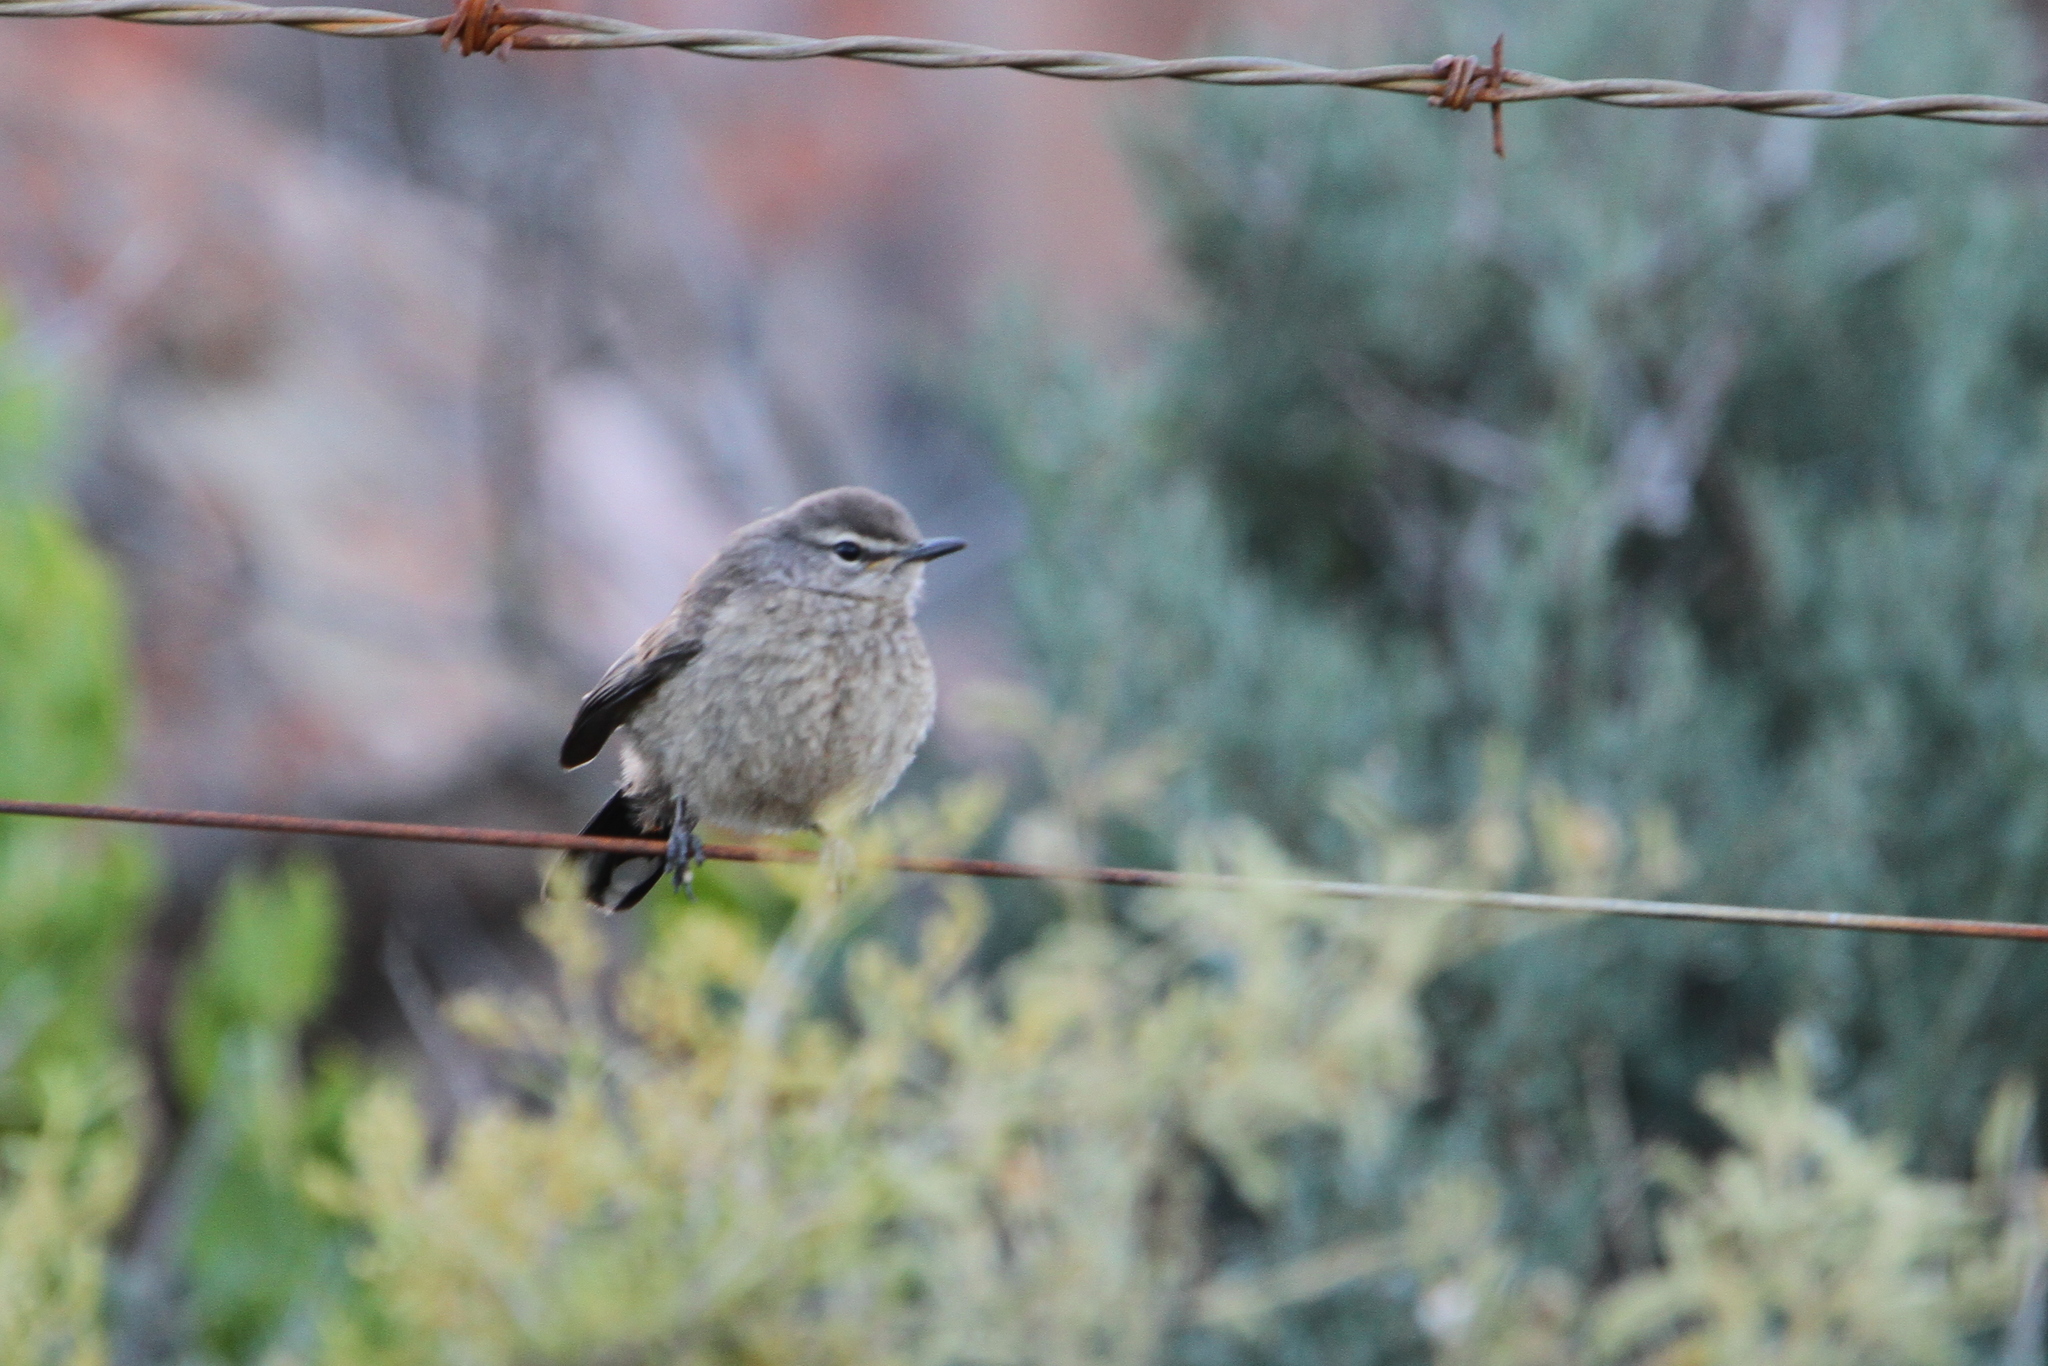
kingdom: Animalia
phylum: Chordata
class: Aves
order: Passeriformes
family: Muscicapidae
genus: Erythropygia
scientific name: Erythropygia coryphoeus
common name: Karoo scrub robin
